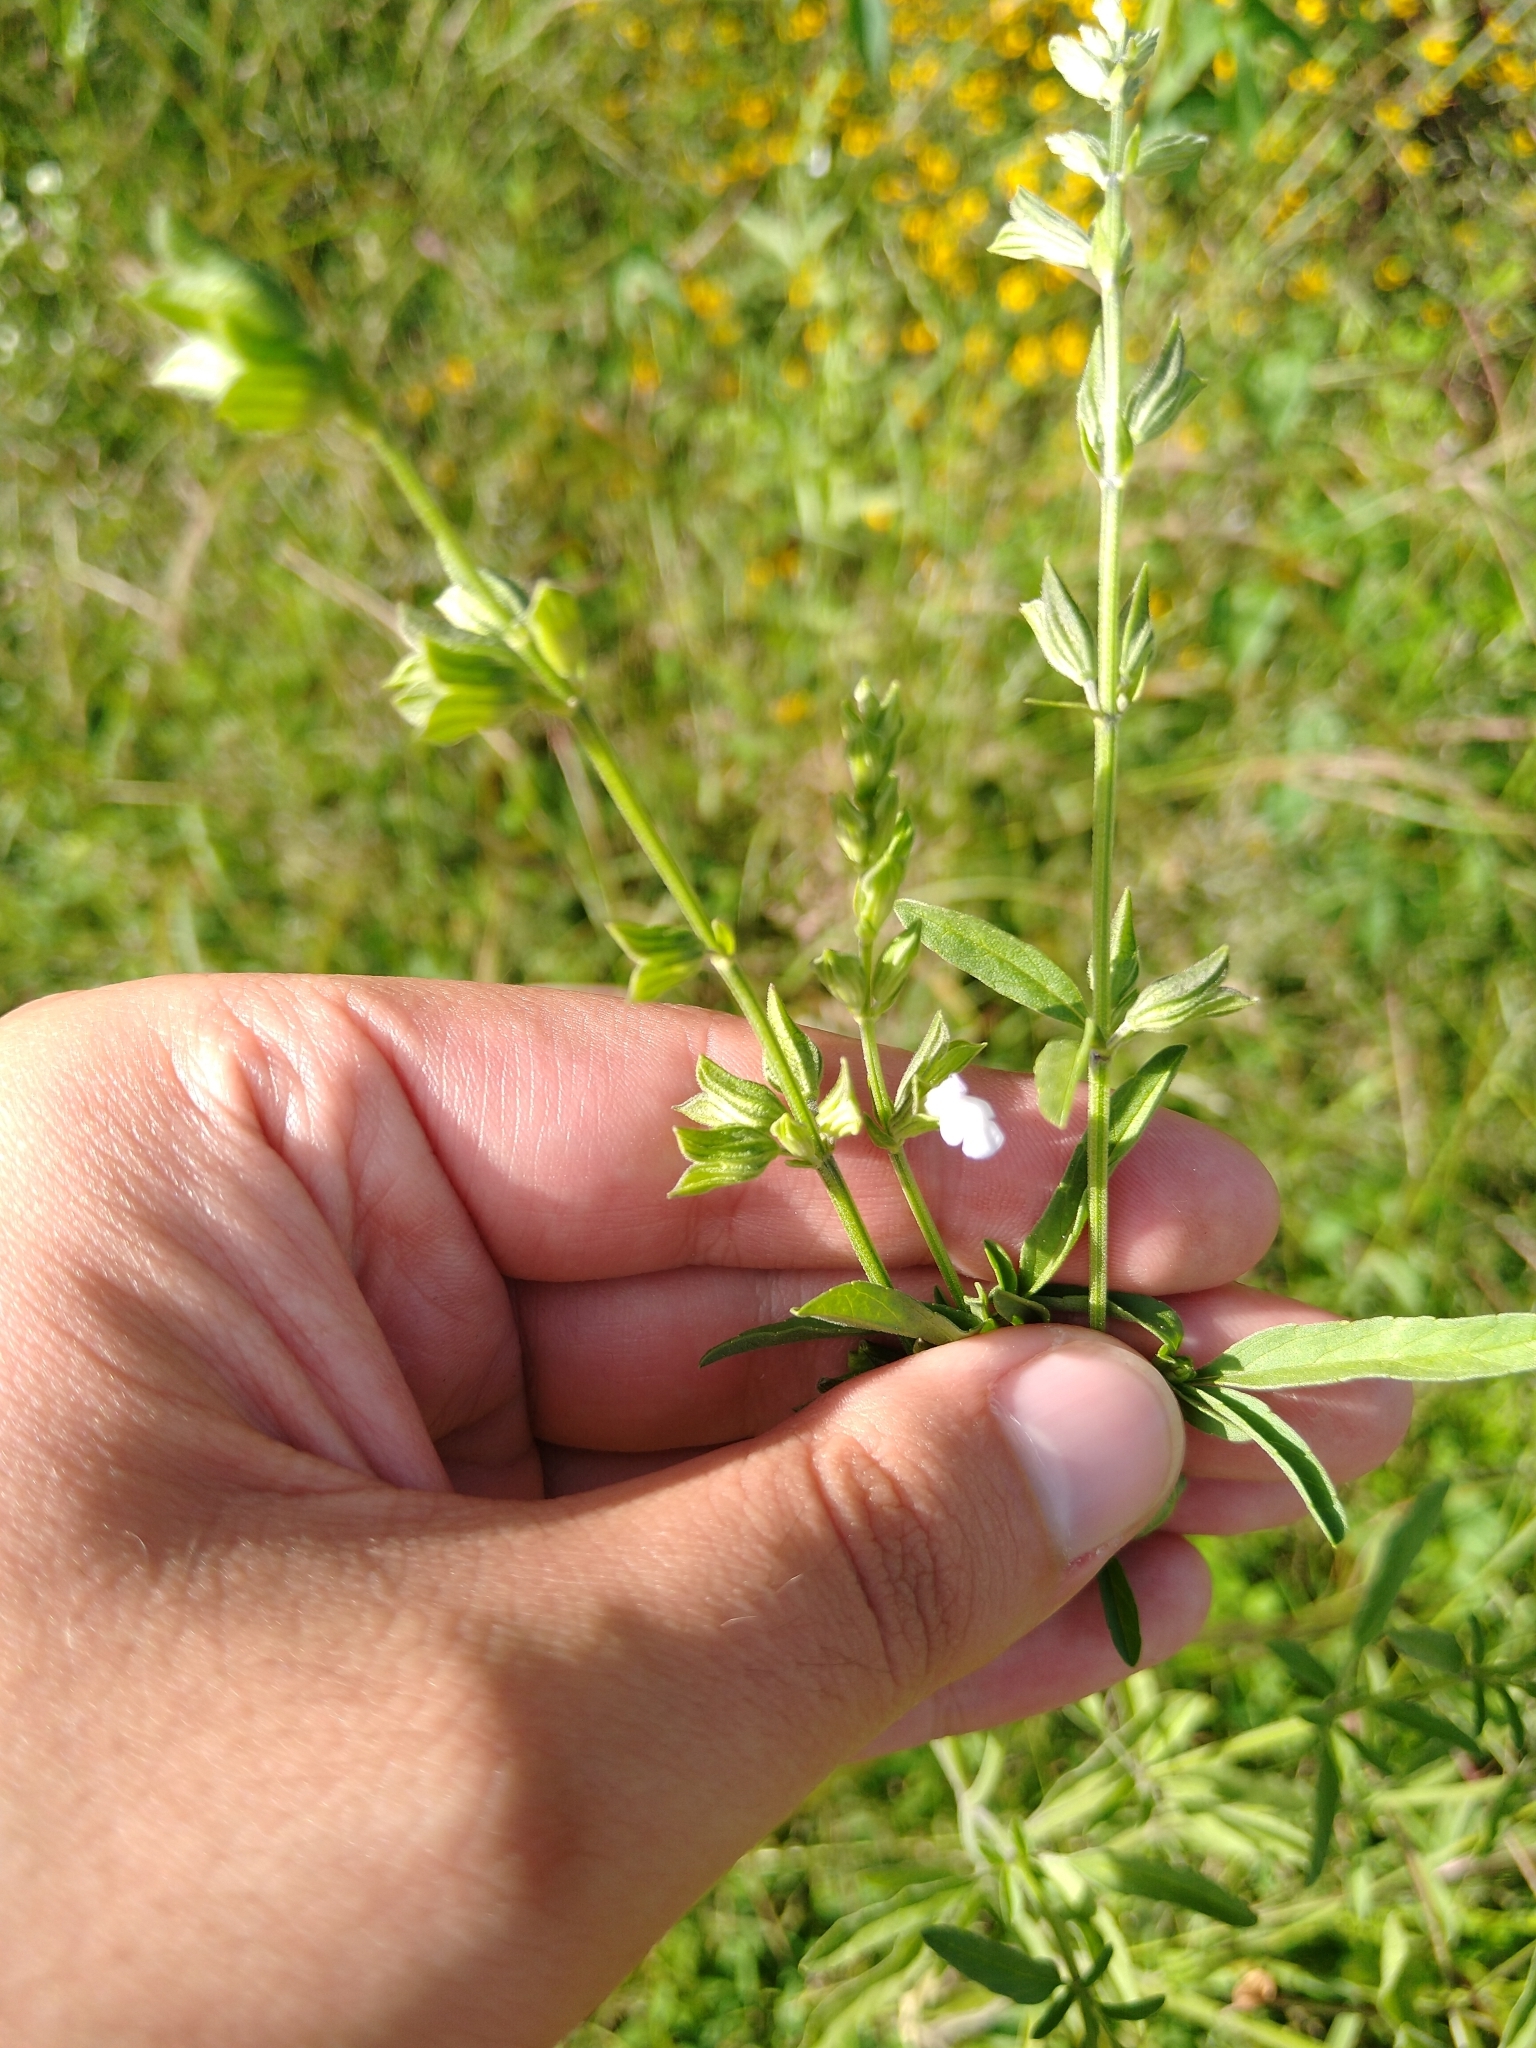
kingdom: Plantae
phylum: Tracheophyta
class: Magnoliopsida
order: Lamiales
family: Lamiaceae
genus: Salvia
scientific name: Salvia reflexa
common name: Mintweed
